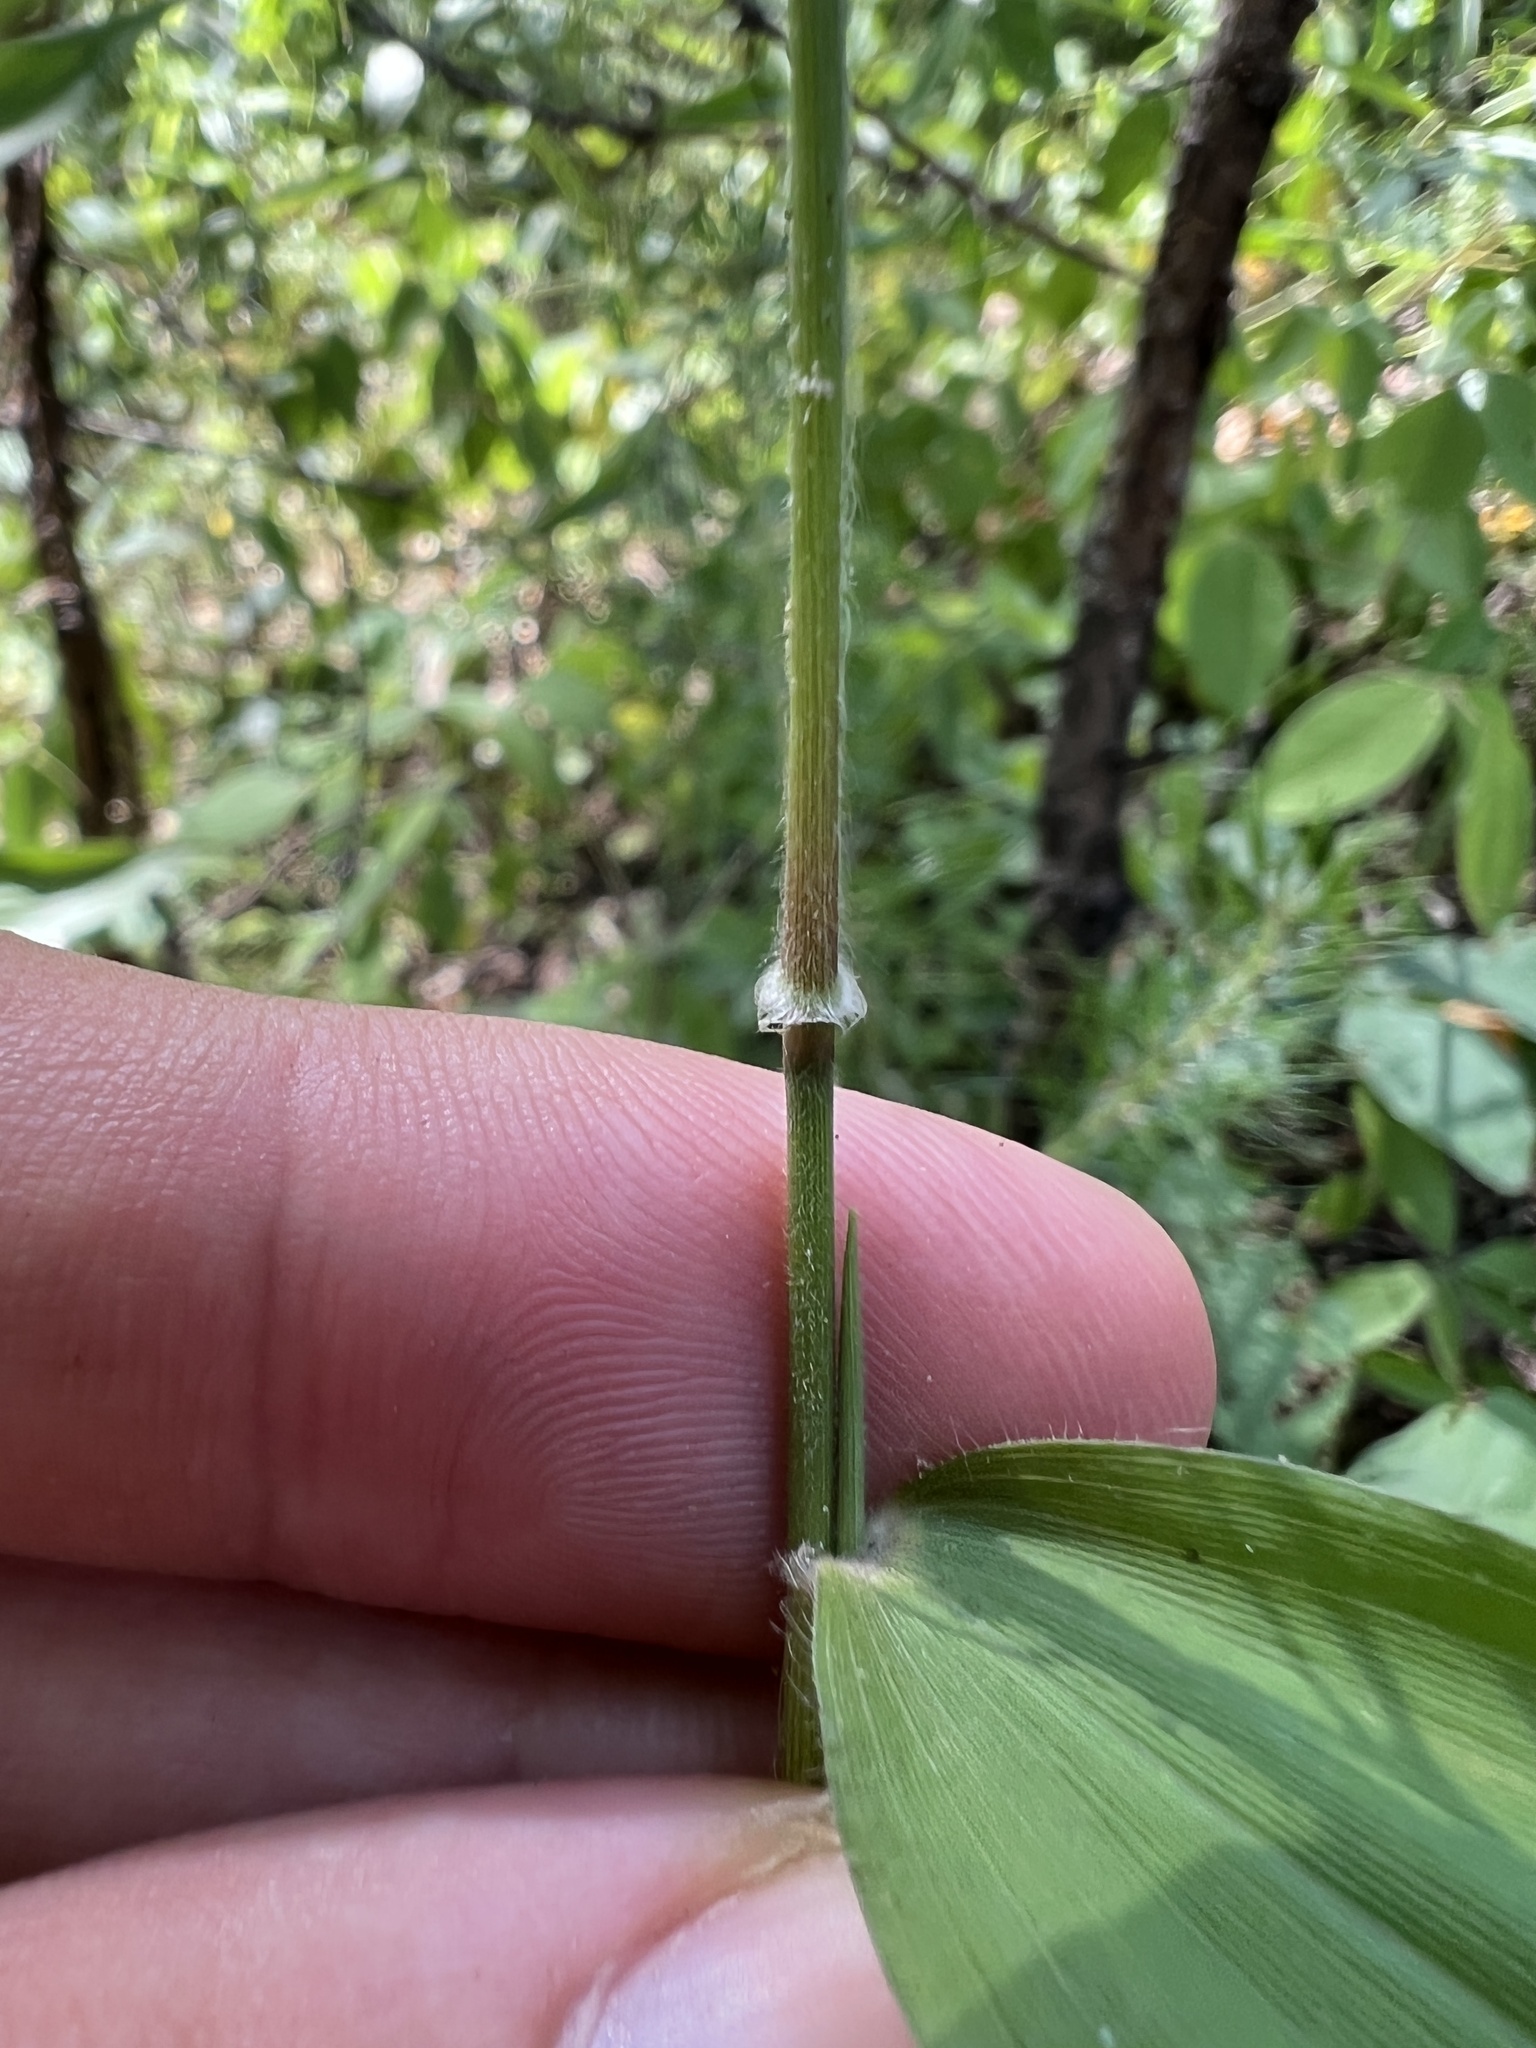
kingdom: Plantae
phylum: Tracheophyta
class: Liliopsida
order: Poales
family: Poaceae
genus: Dichanthelium
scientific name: Dichanthelium boscii
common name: Bosc's panic grass
